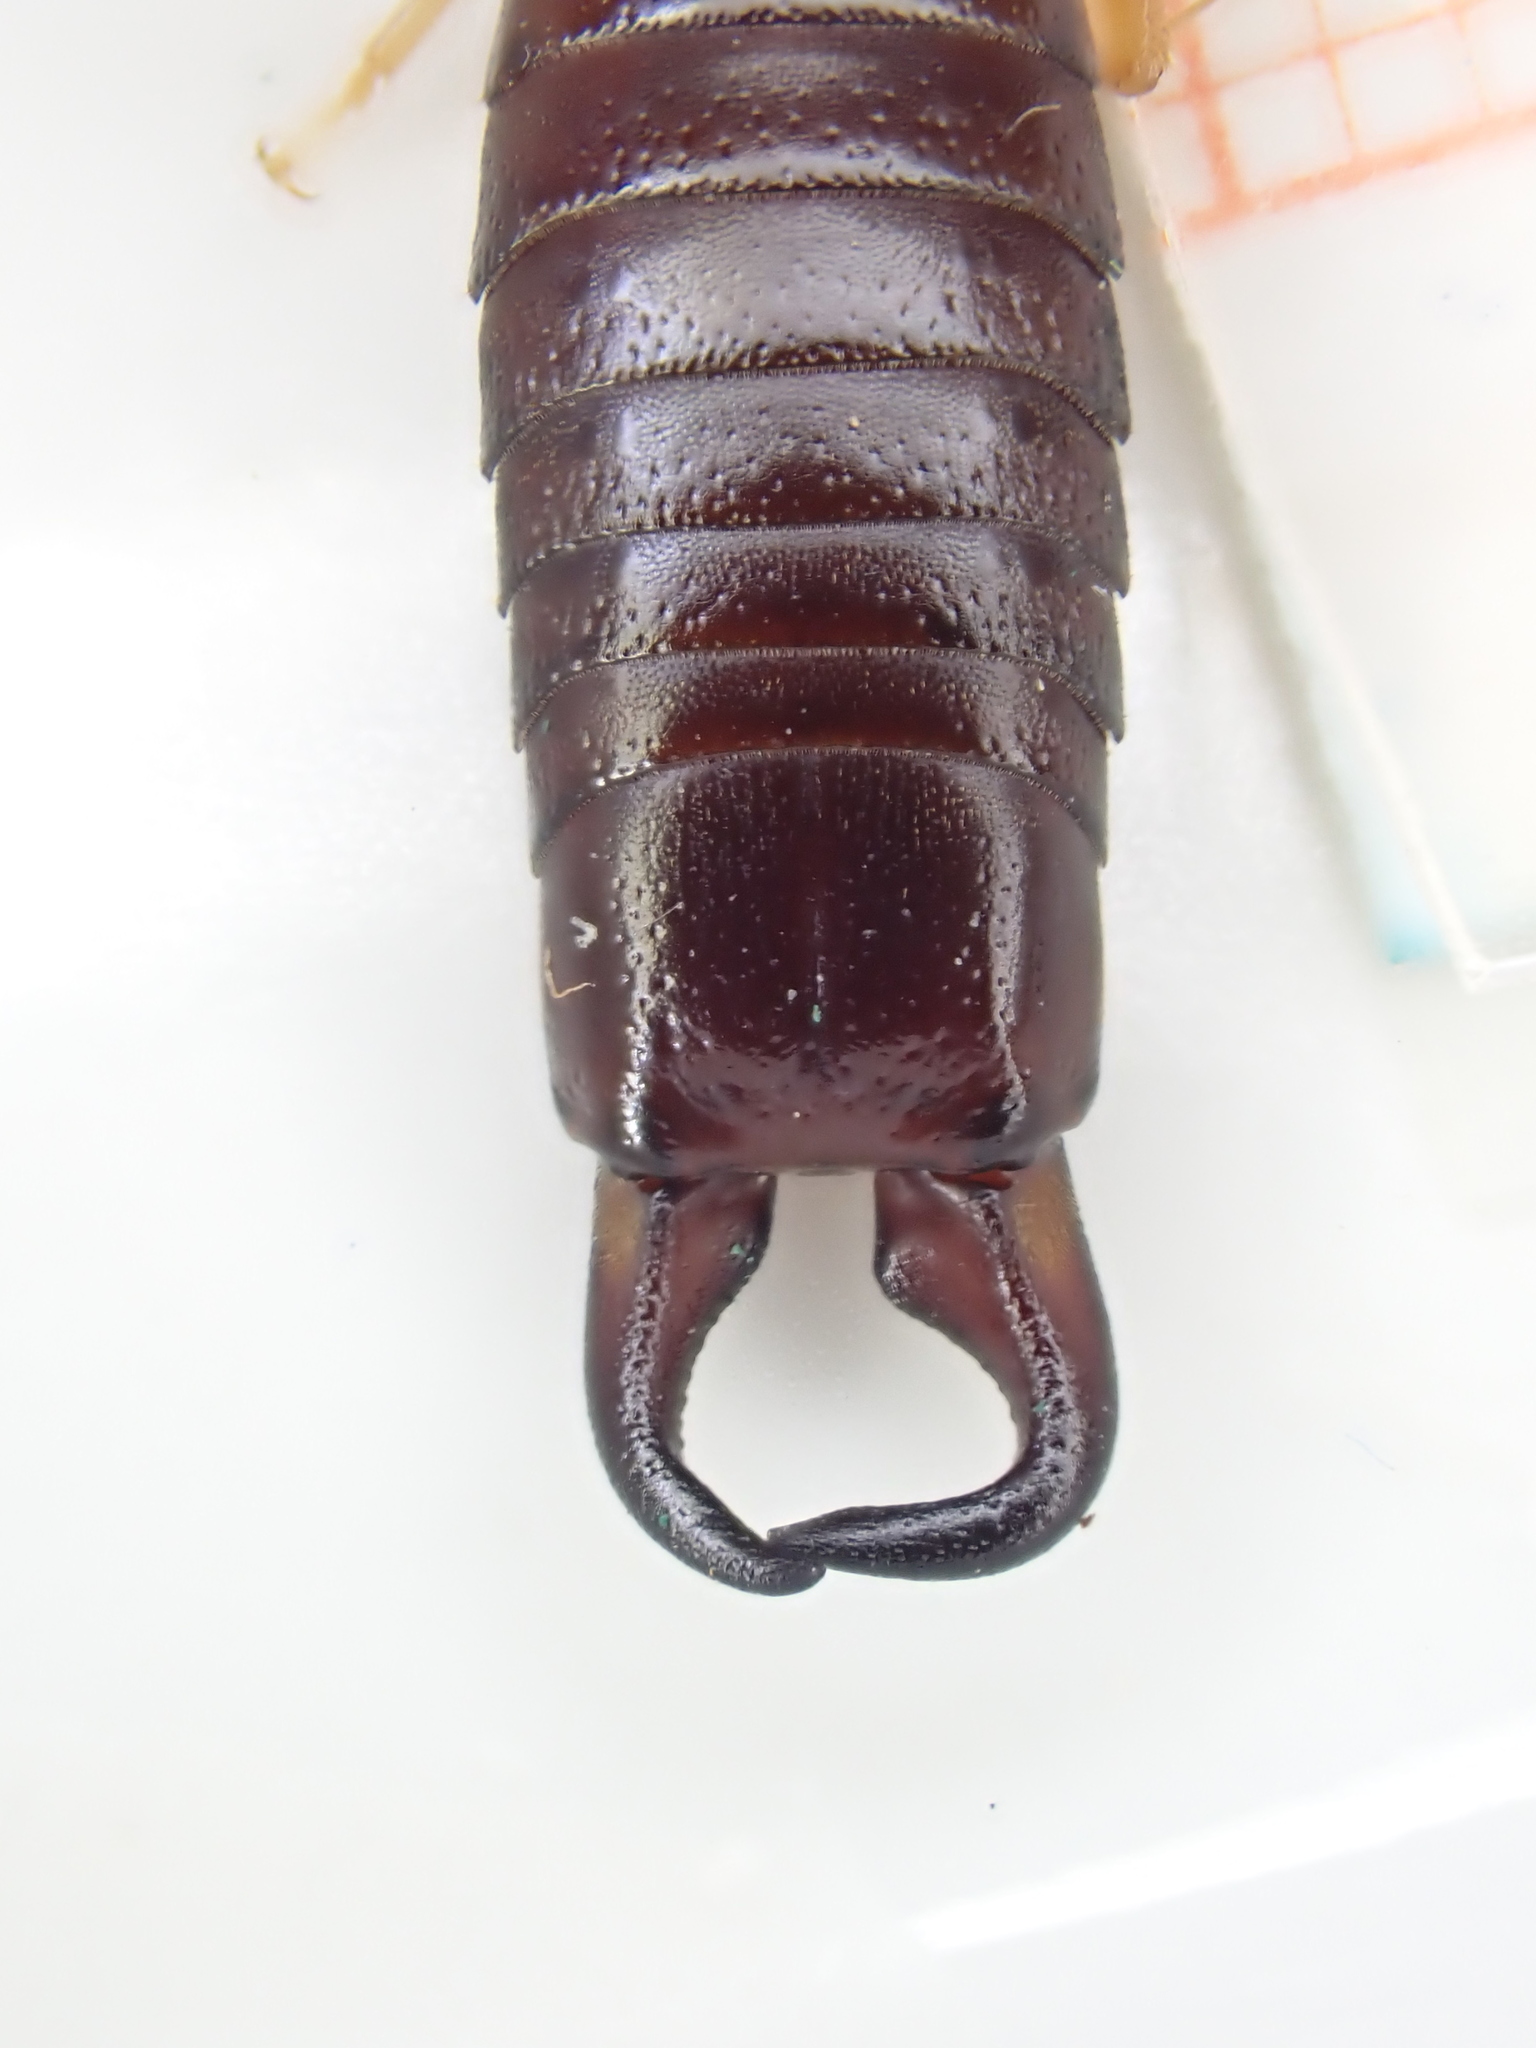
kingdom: Animalia
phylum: Arthropoda
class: Insecta
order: Dermaptera
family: Anisolabididae
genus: Anisolabis
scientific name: Anisolabis maritima
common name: Maritime earwig
